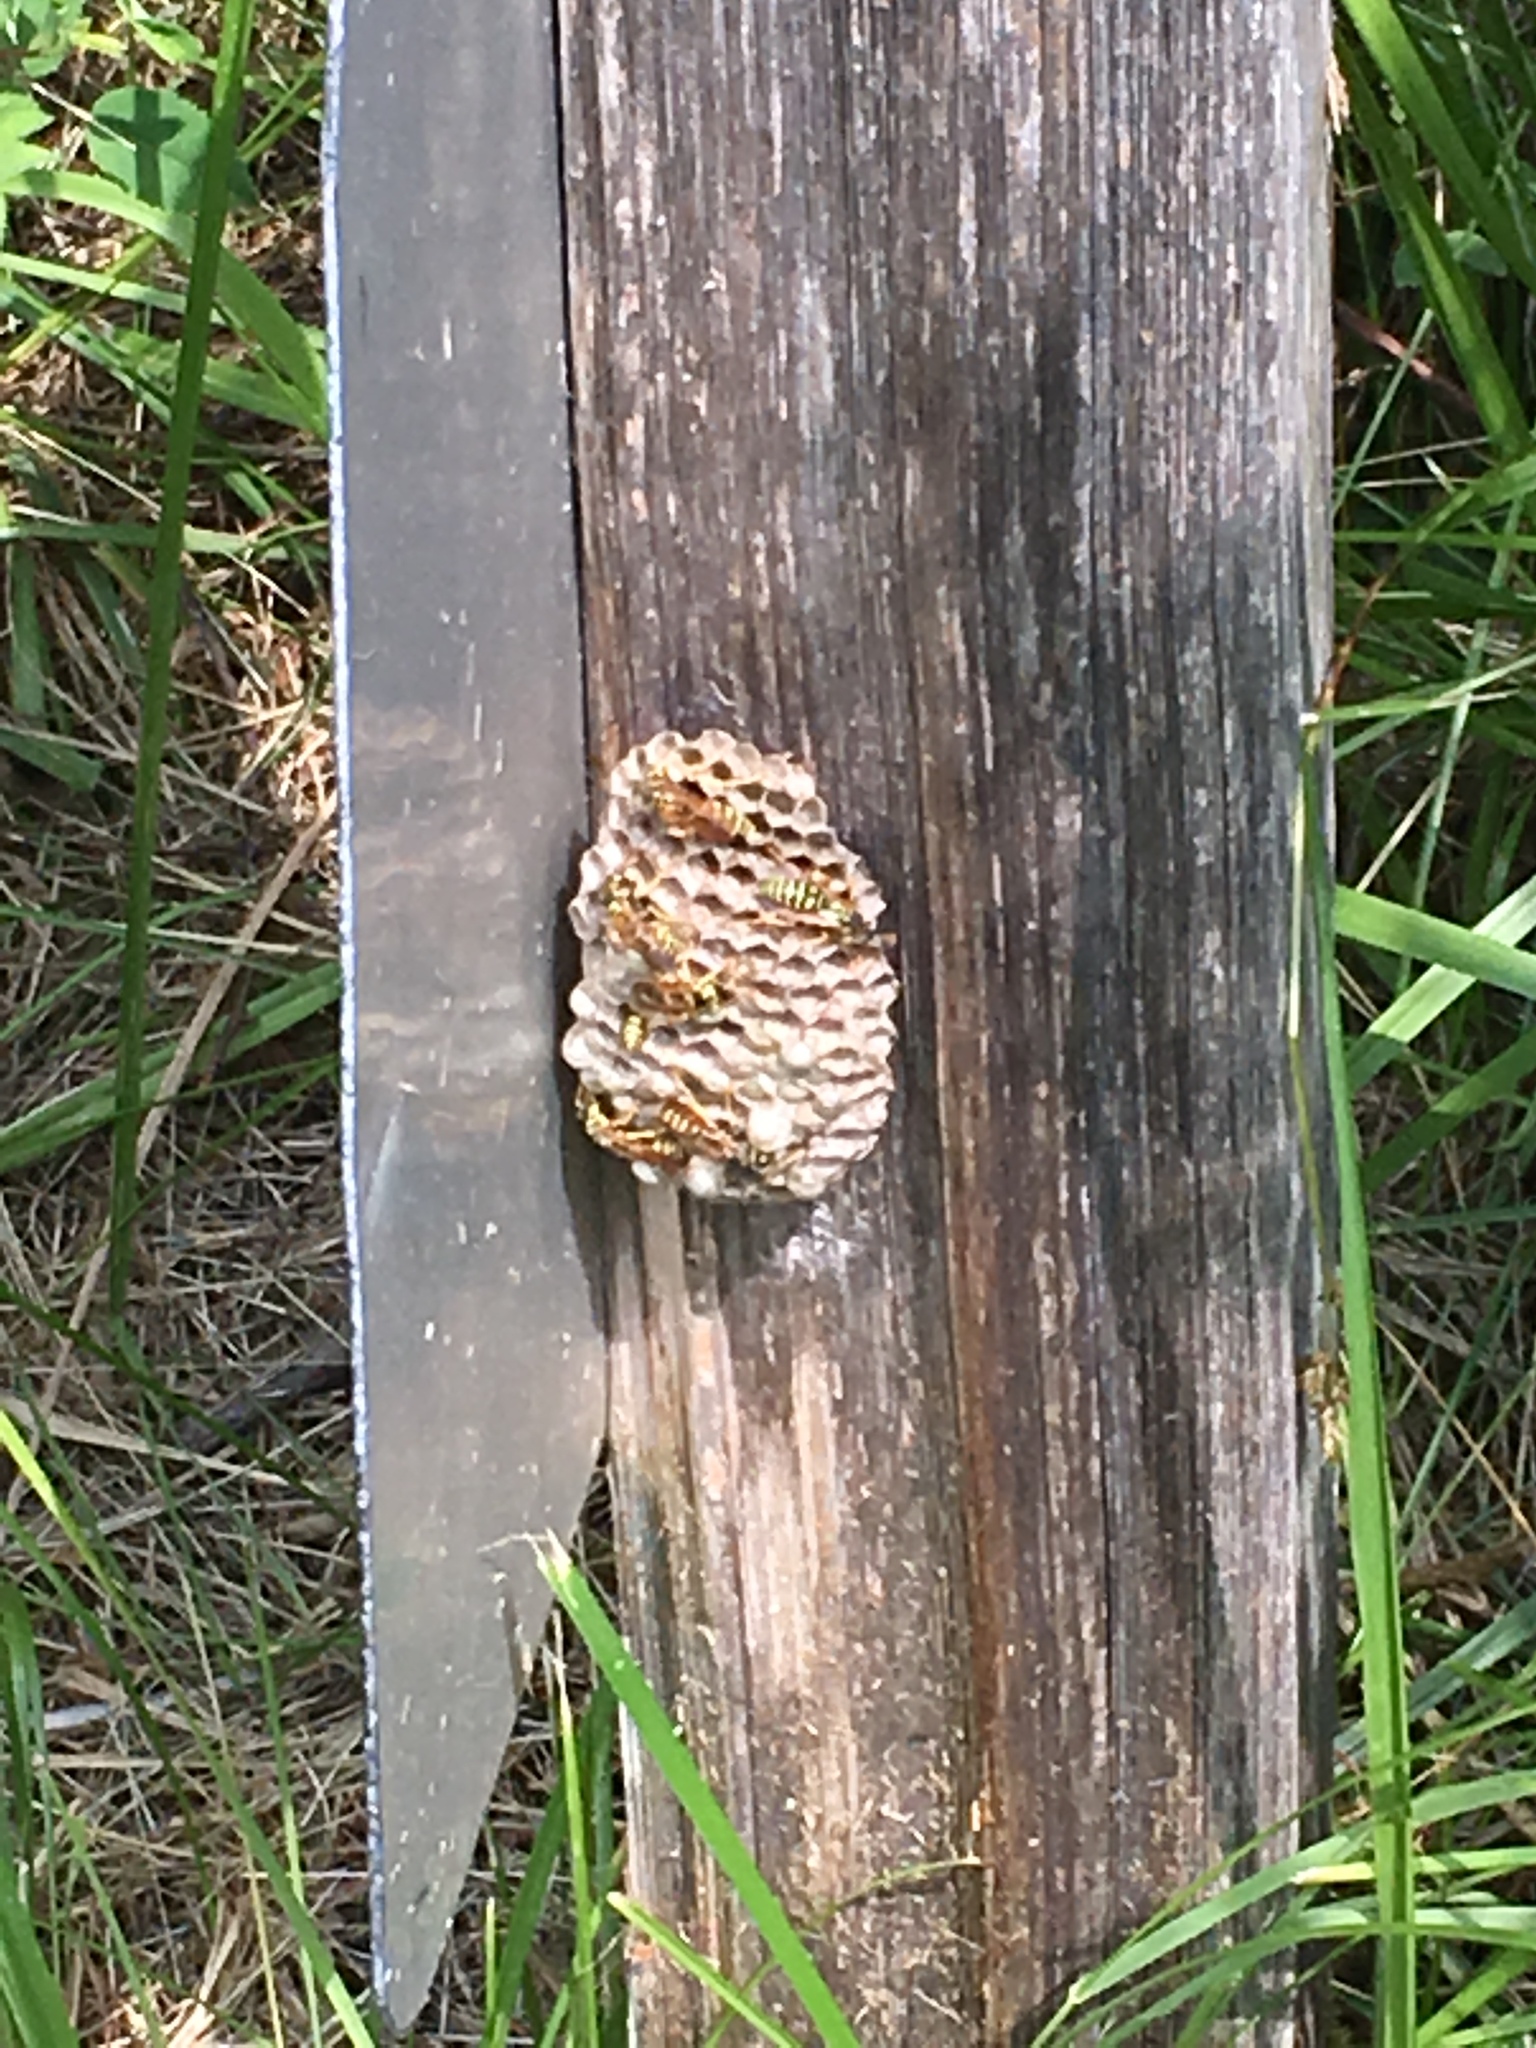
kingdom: Animalia
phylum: Arthropoda
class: Insecta
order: Hymenoptera
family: Eumenidae
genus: Polistes
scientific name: Polistes dominula
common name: Paper wasp
